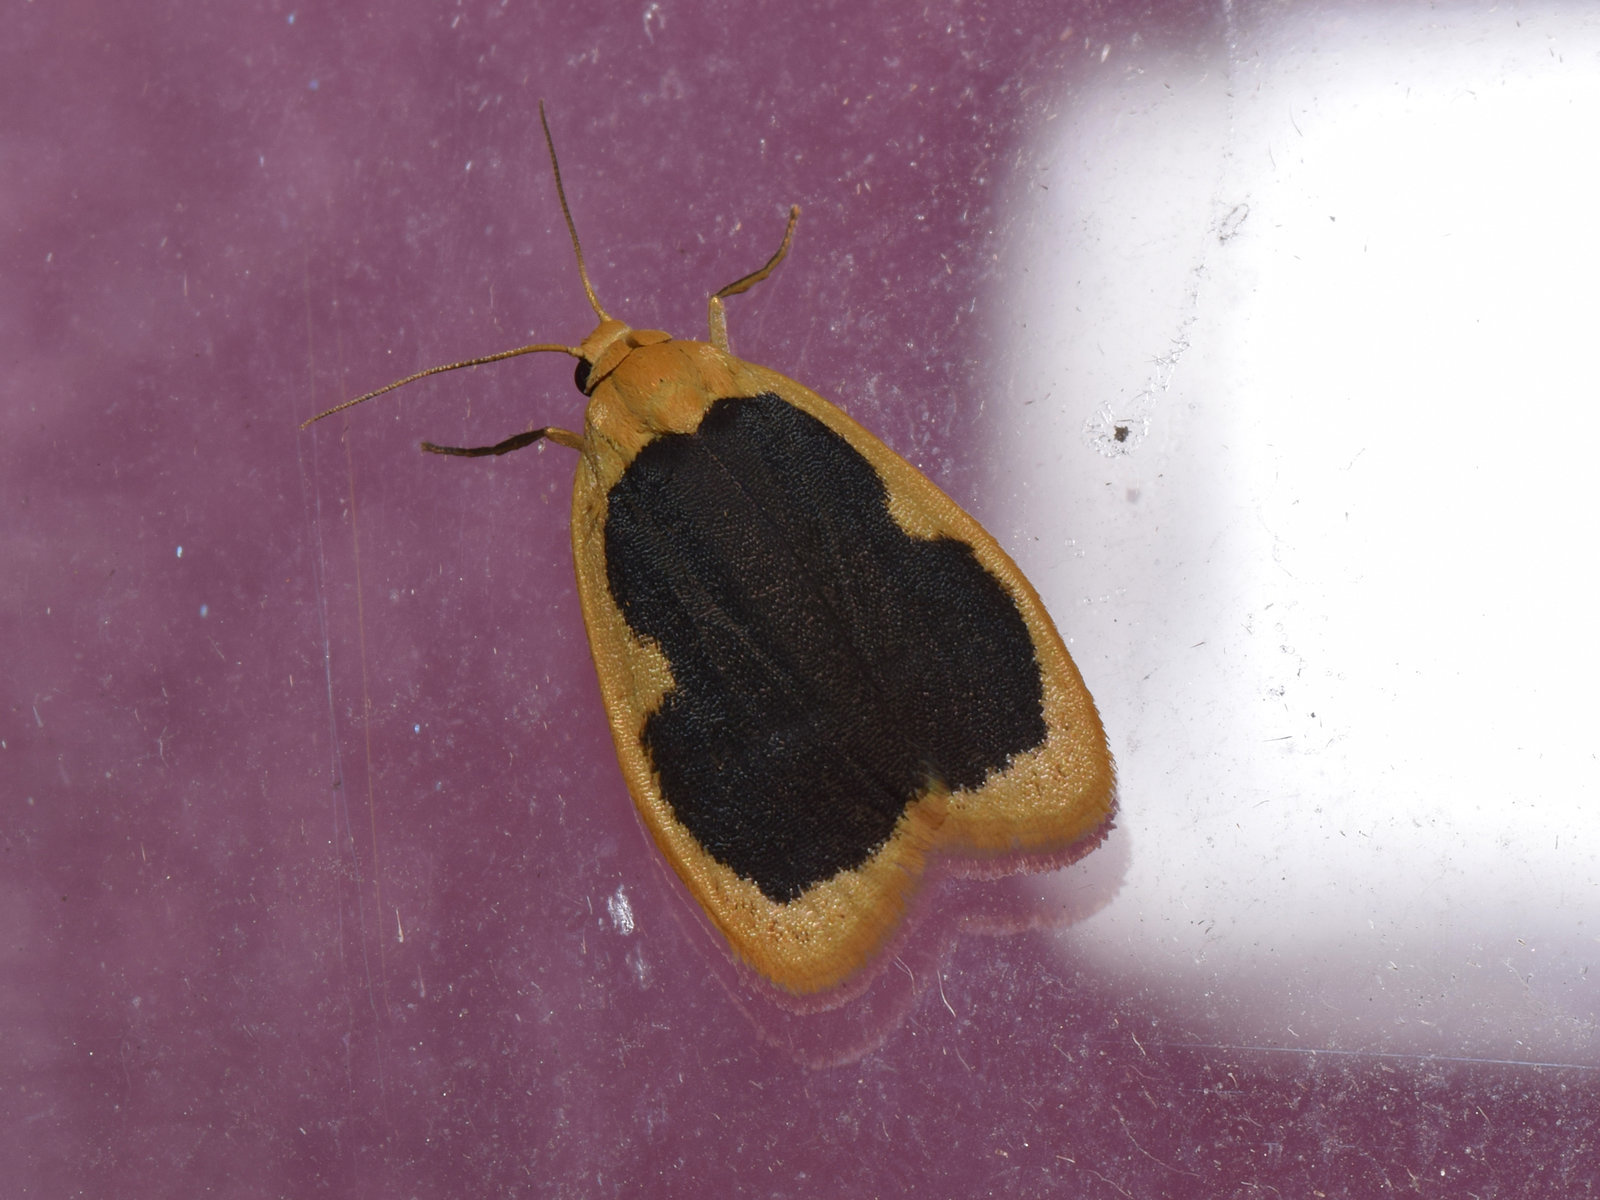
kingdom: Animalia
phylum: Arthropoda
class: Insecta
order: Lepidoptera
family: Erebidae
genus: Pseudoblabes
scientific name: Pseudoblabes oophora
